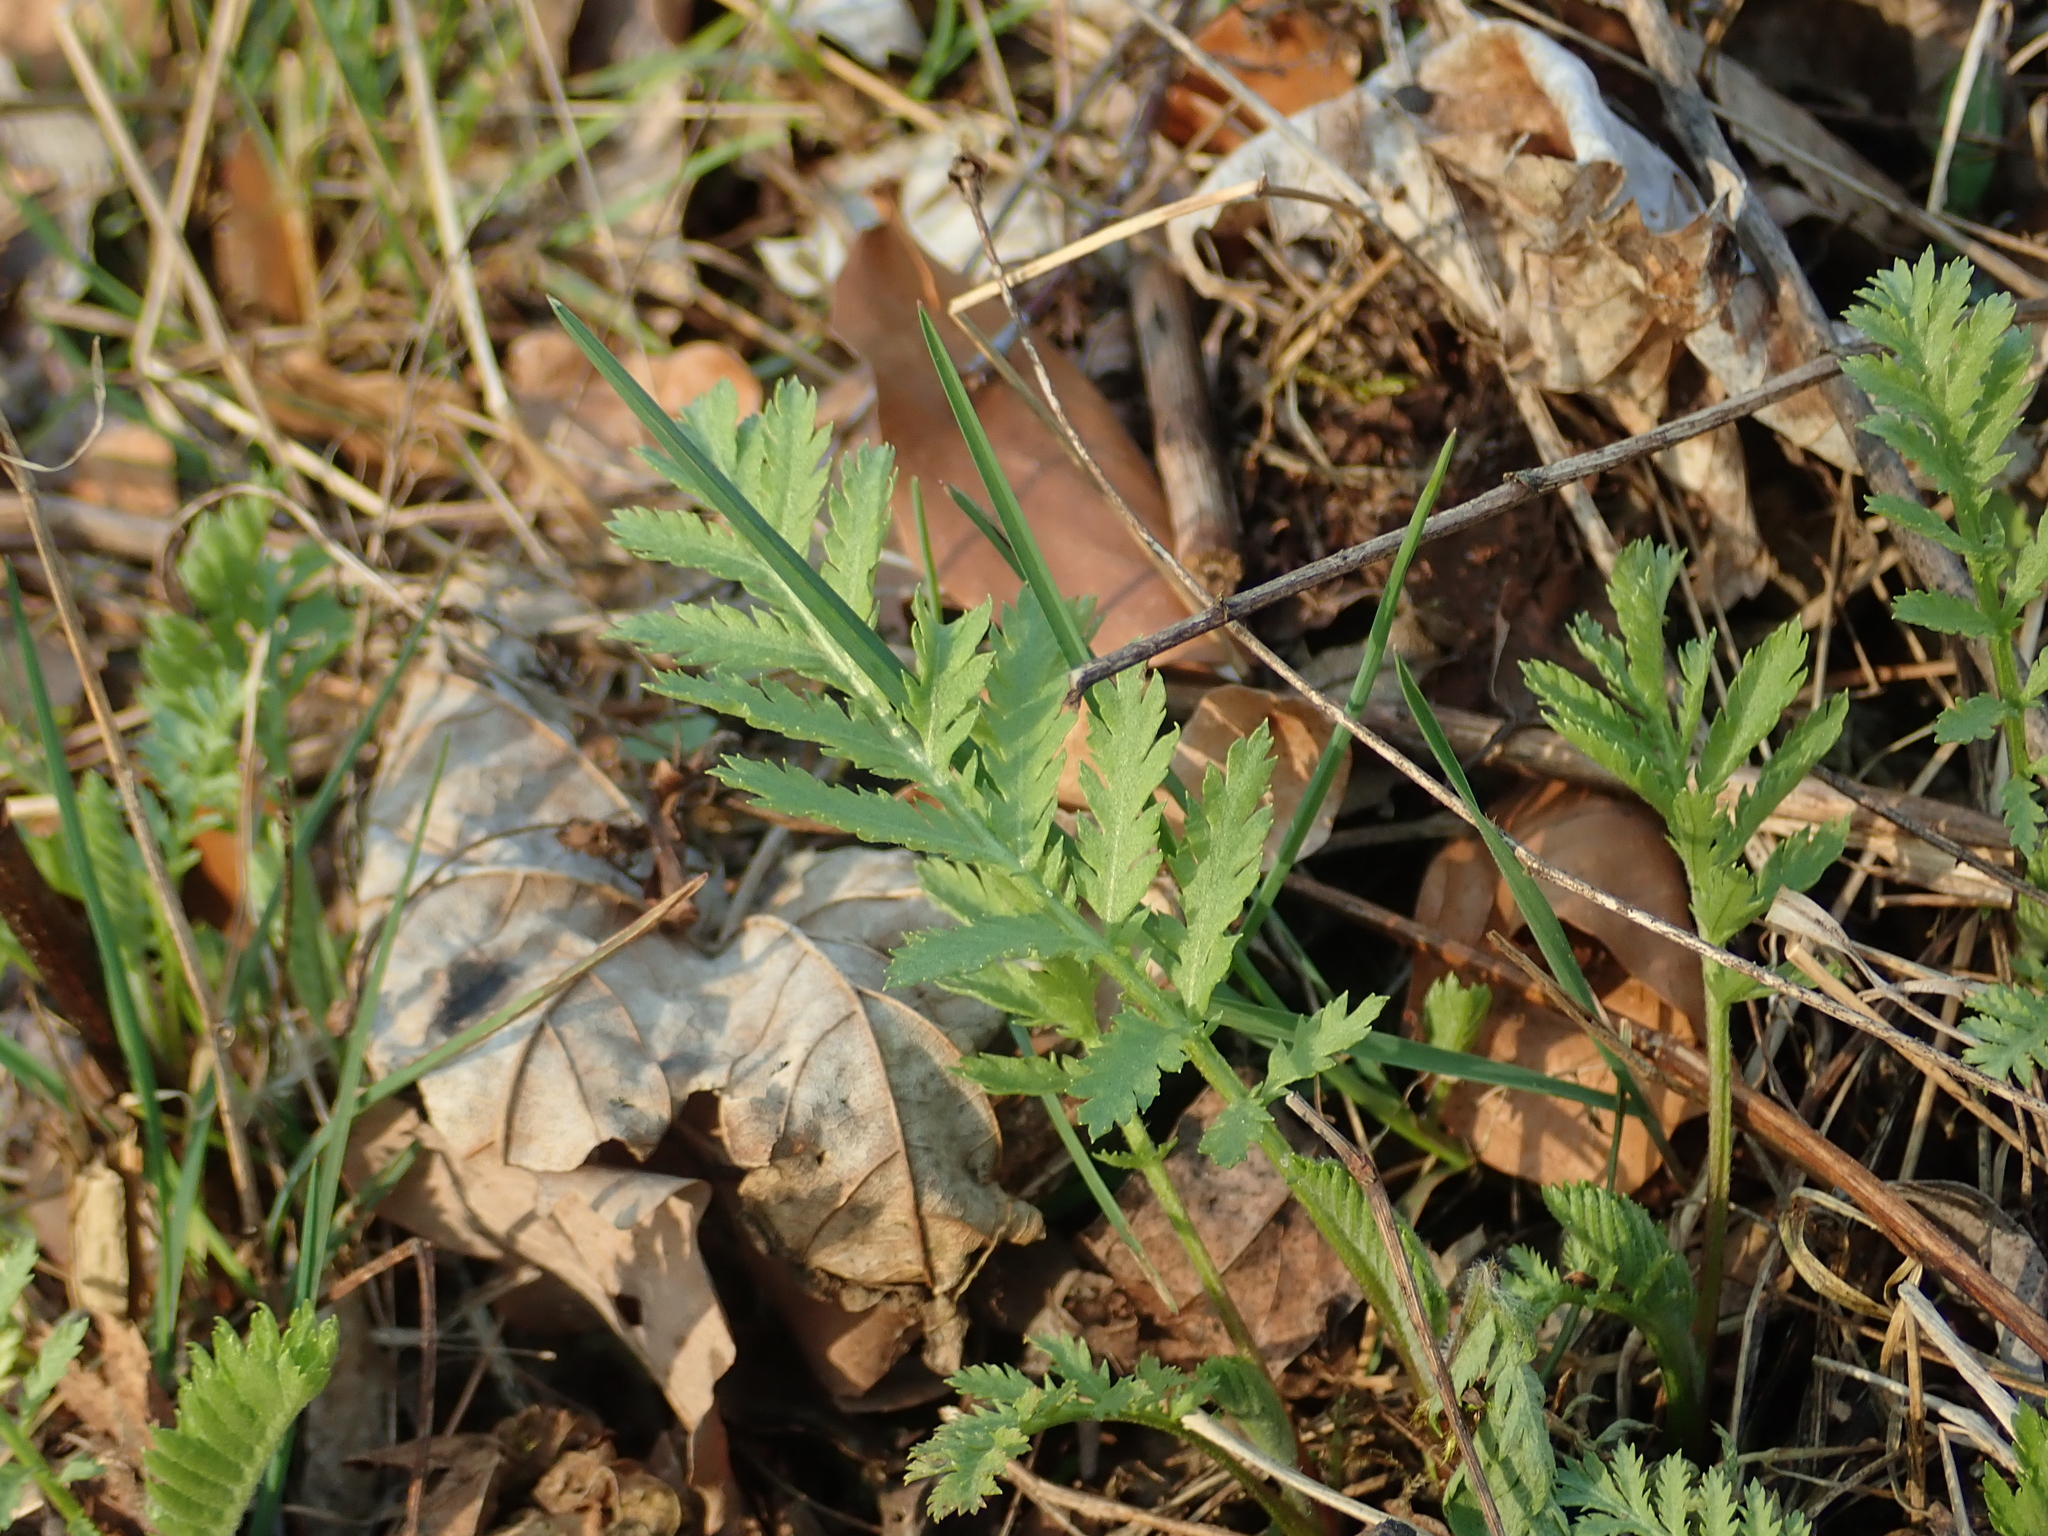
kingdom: Plantae
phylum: Tracheophyta
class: Magnoliopsida
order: Asterales
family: Asteraceae
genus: Tanacetum
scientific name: Tanacetum vulgare
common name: Common tansy
